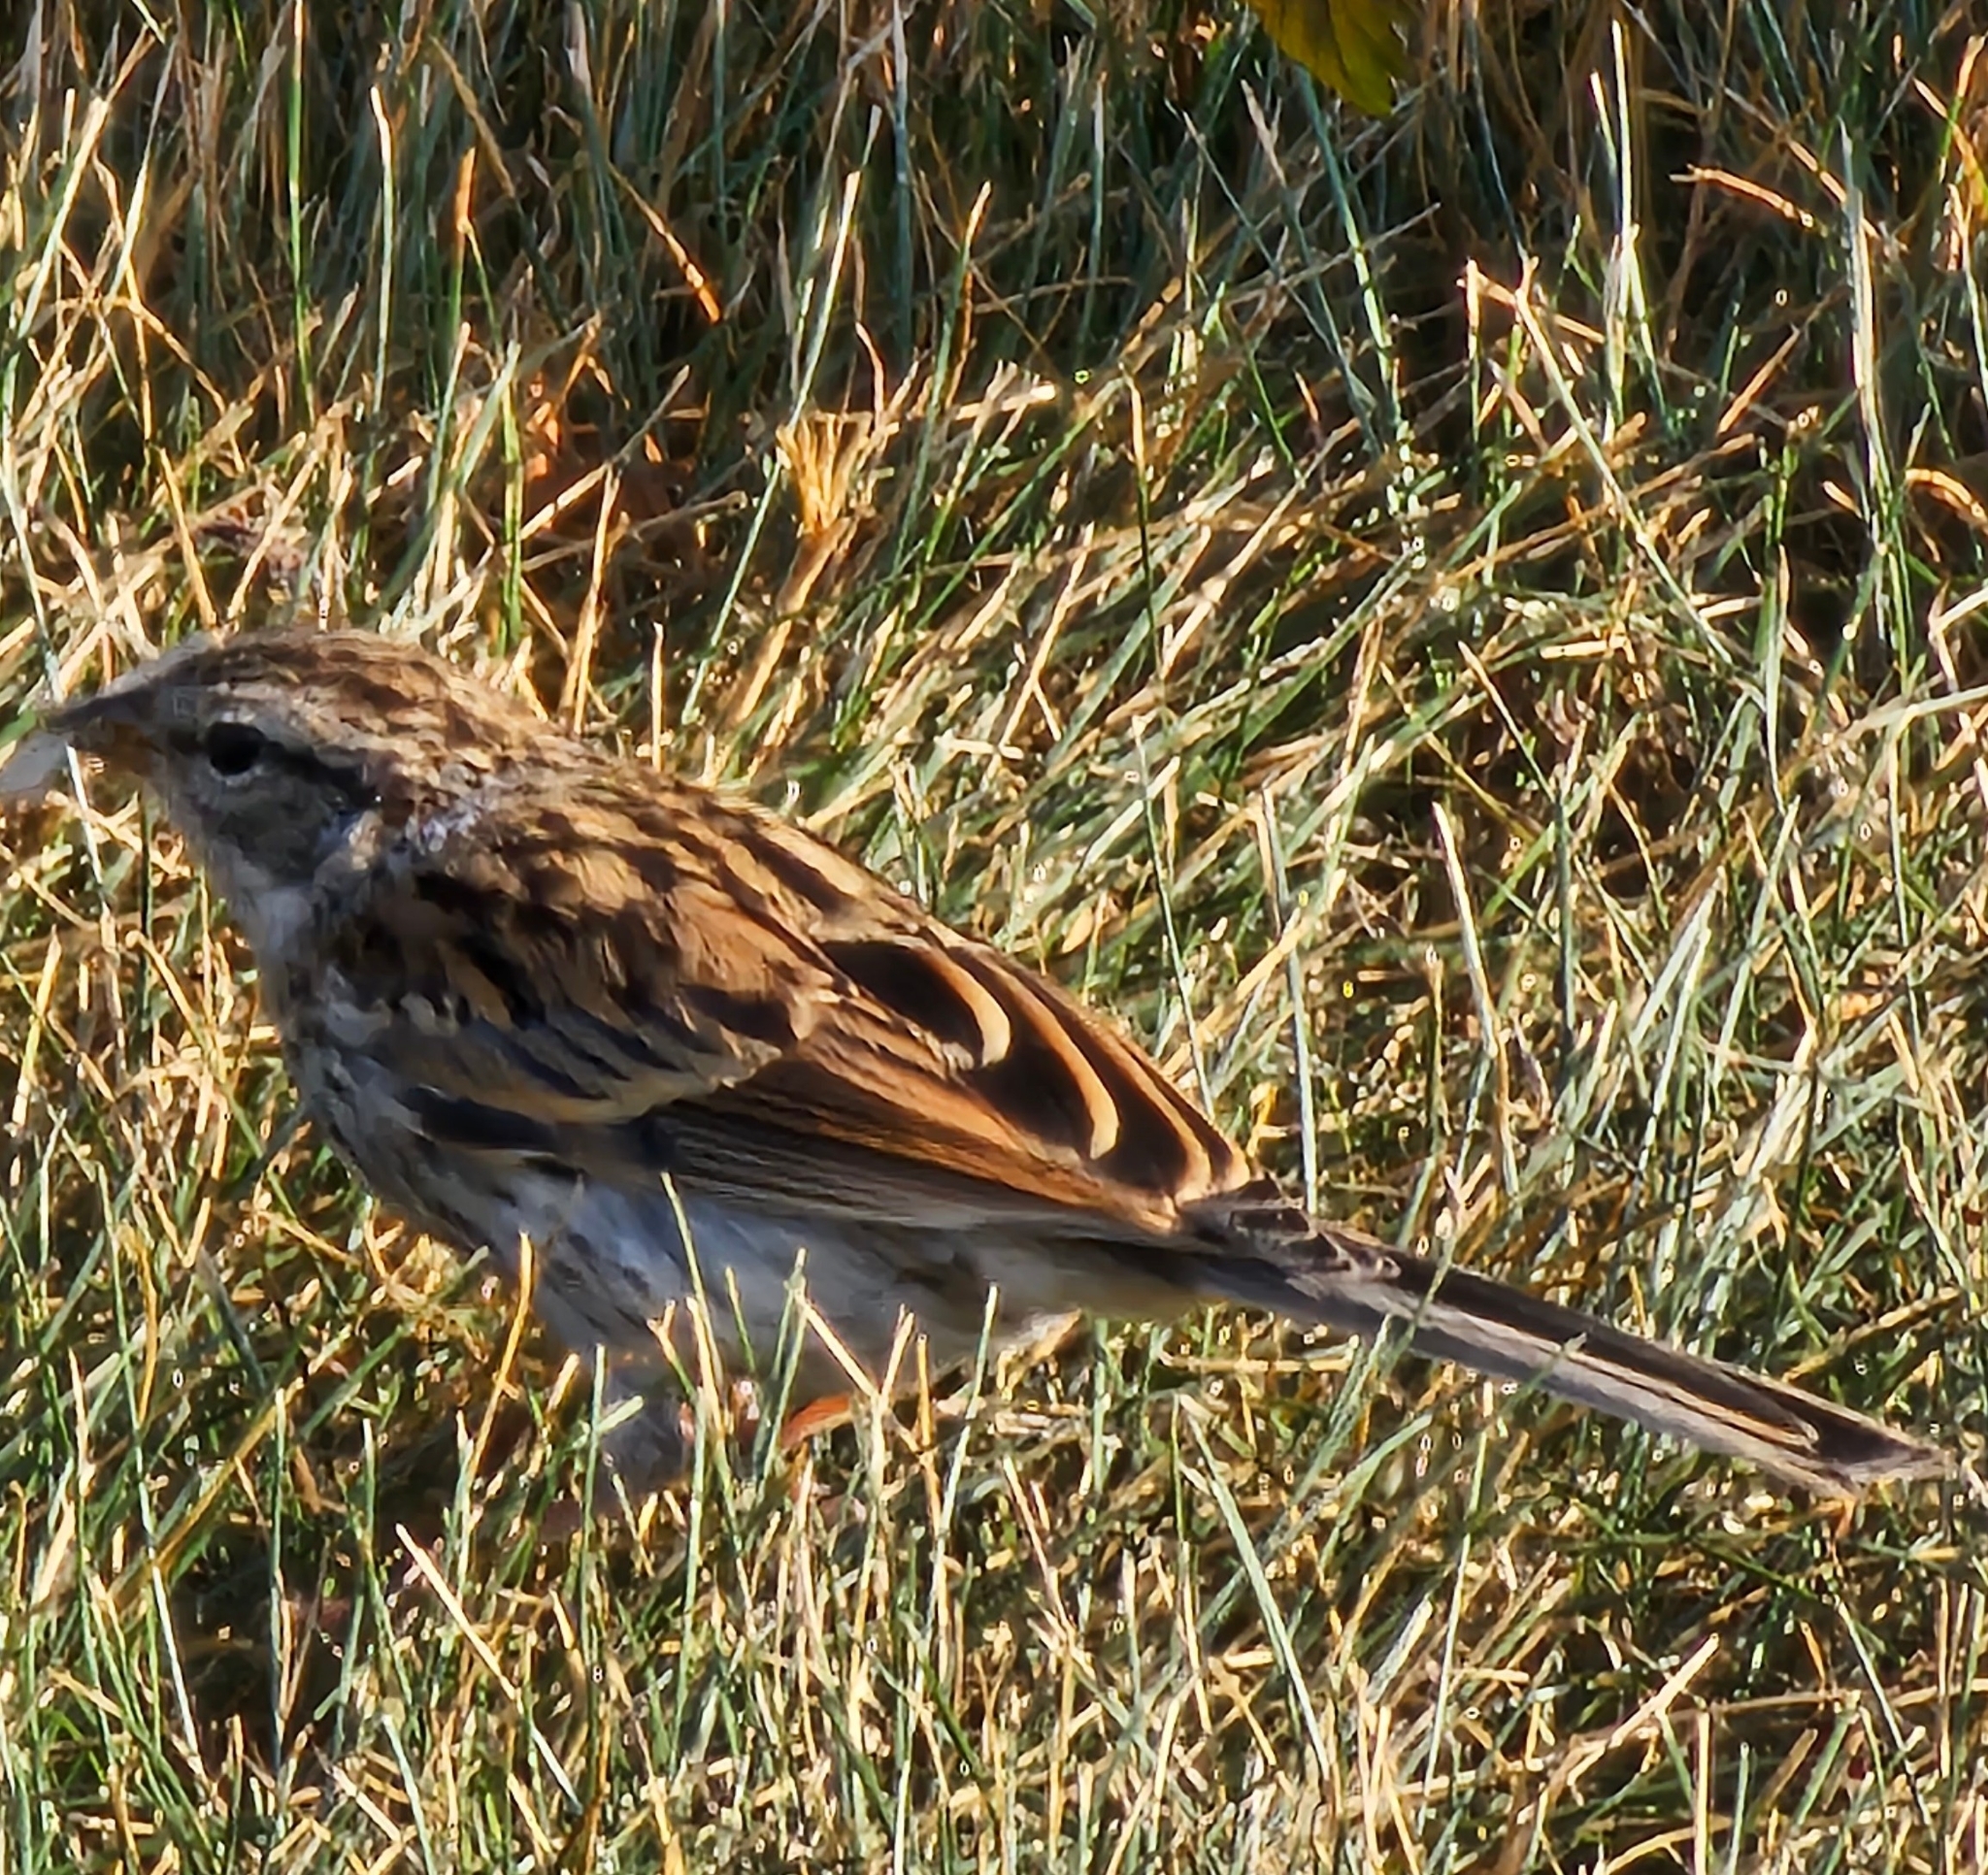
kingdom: Animalia
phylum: Chordata
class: Aves
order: Passeriformes
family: Passerellidae
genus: Spizella
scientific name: Spizella passerina
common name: Chipping sparrow
